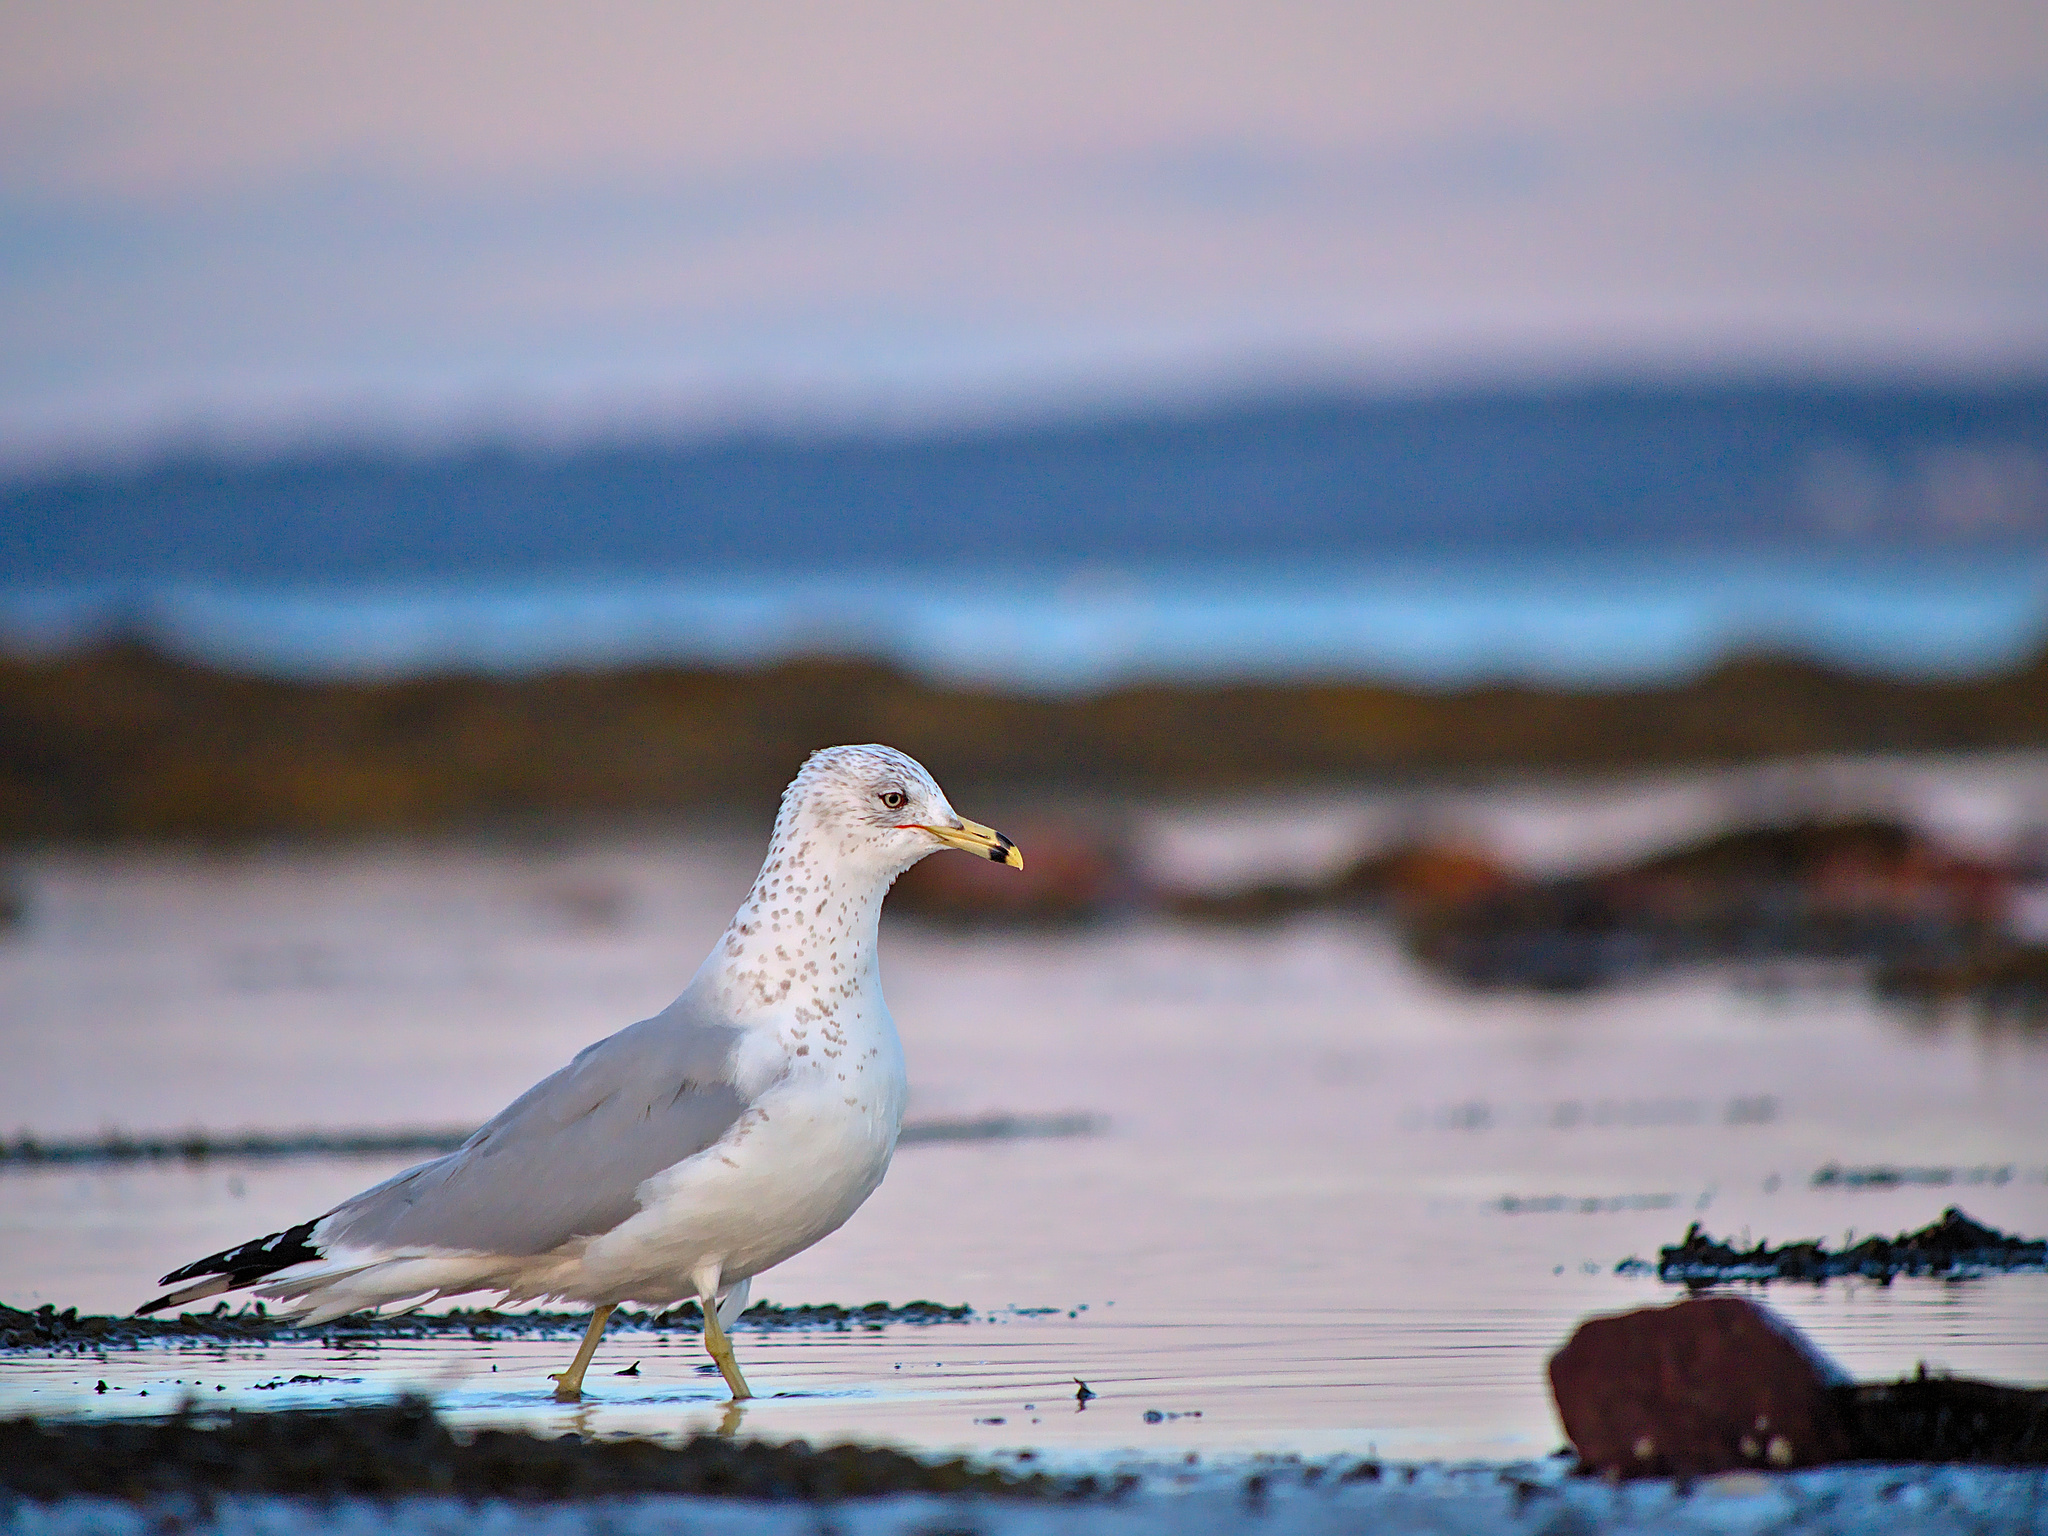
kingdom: Animalia
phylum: Chordata
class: Aves
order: Charadriiformes
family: Laridae
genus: Larus
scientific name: Larus delawarensis
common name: Ring-billed gull
